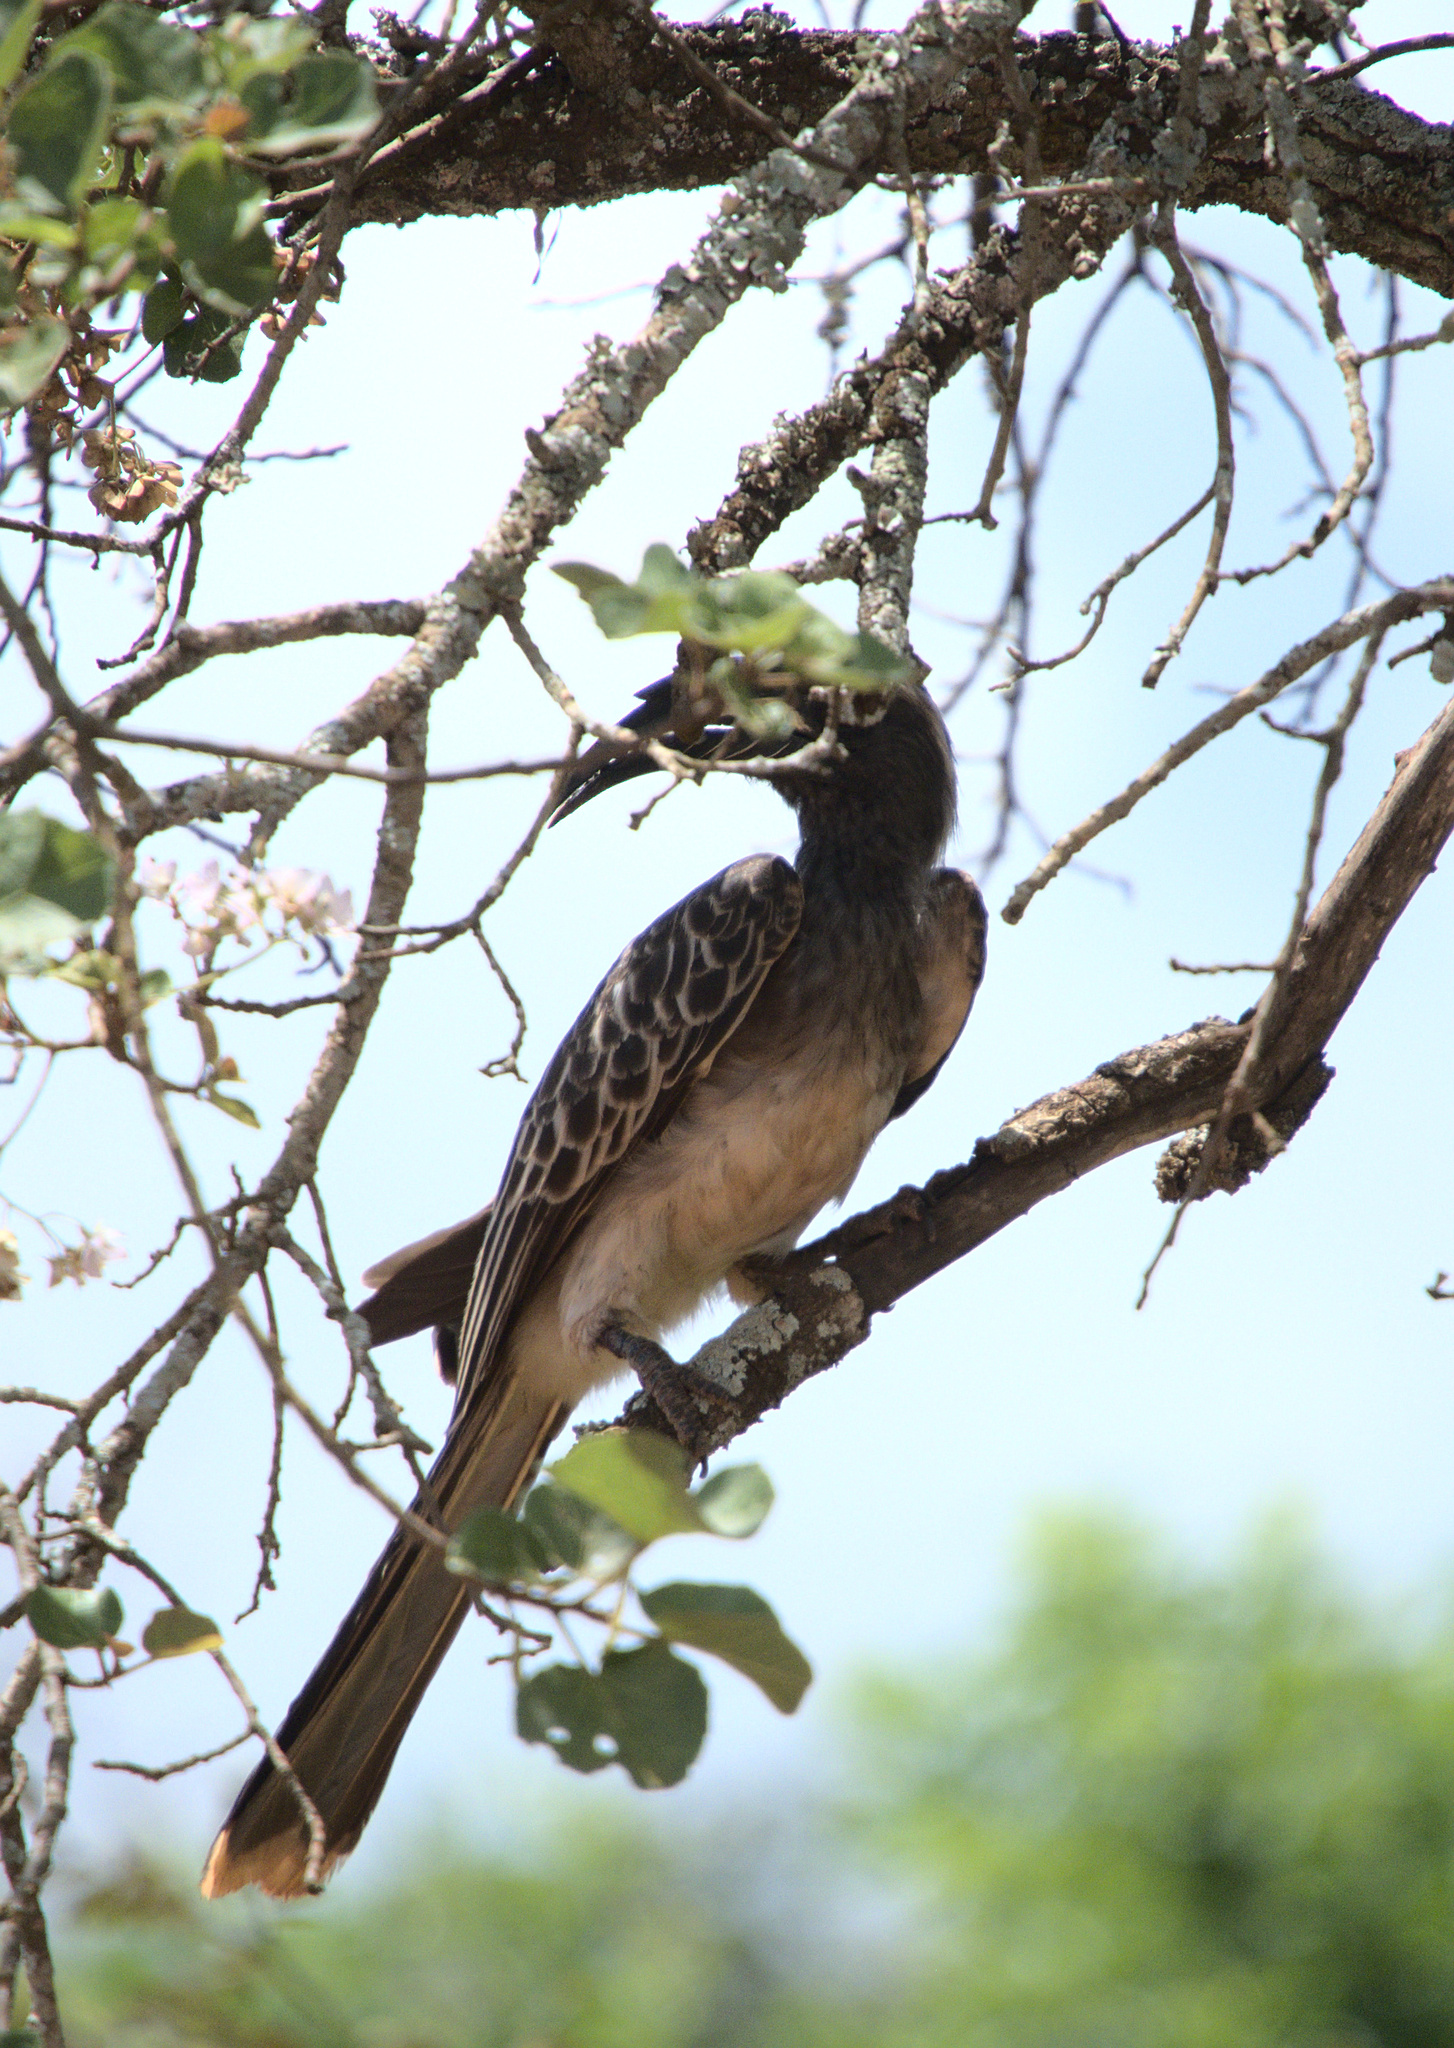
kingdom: Animalia
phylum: Chordata
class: Aves
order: Bucerotiformes
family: Bucerotidae
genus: Lophoceros
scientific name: Lophoceros nasutus
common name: African grey hornbill
